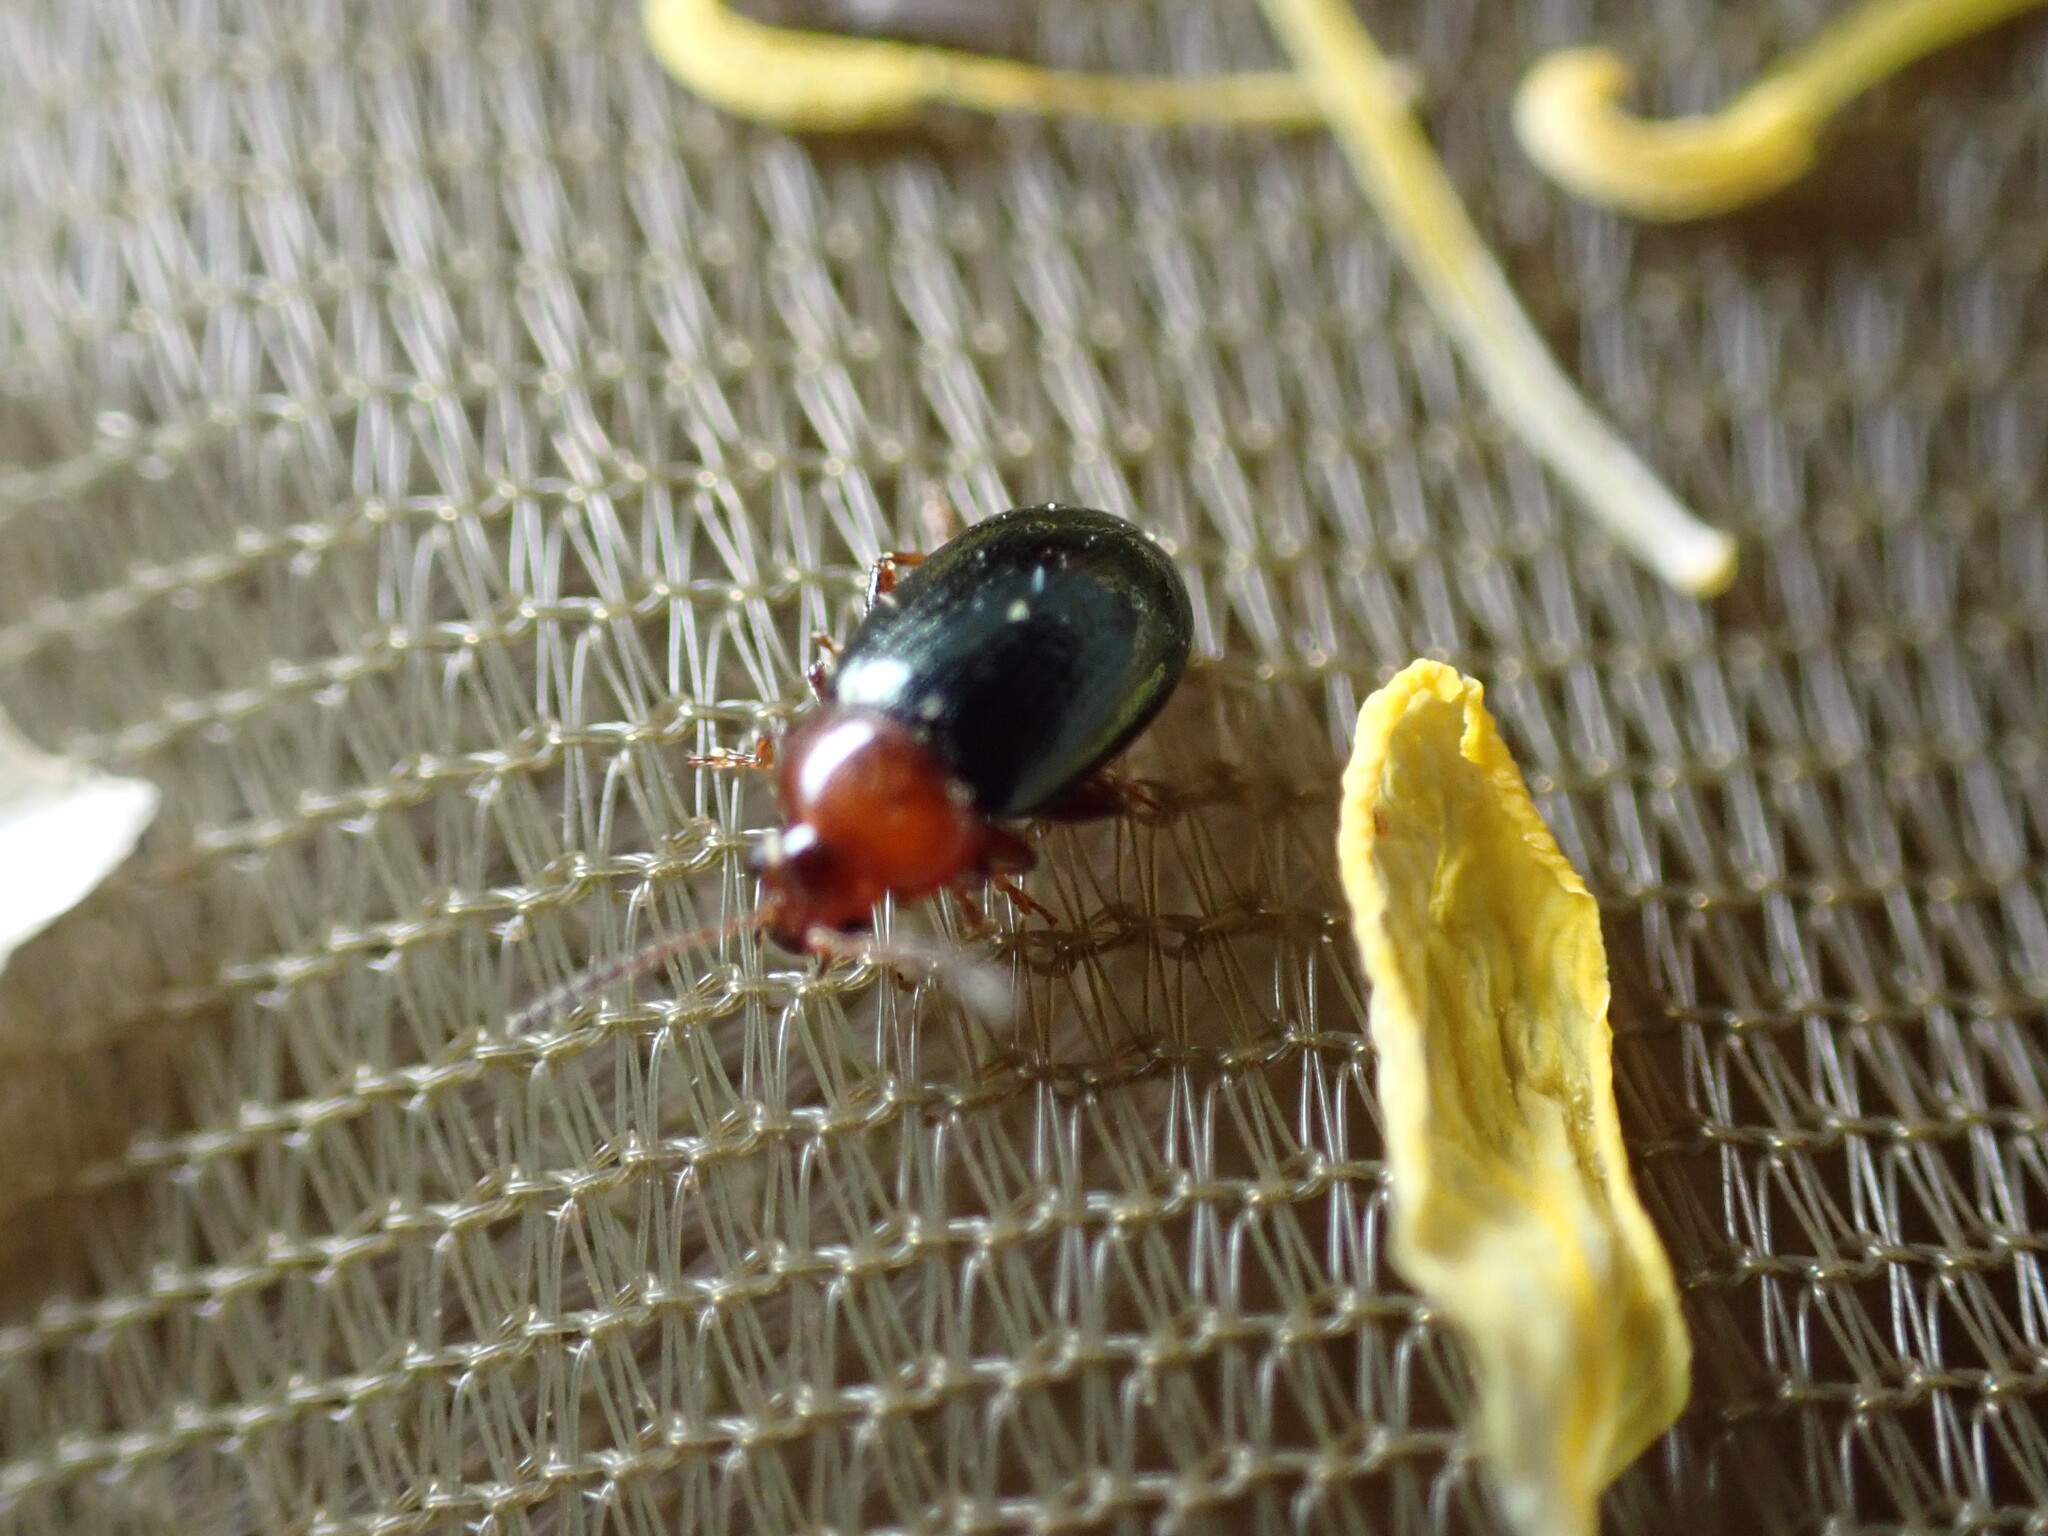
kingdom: Animalia
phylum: Arthropoda
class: Insecta
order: Coleoptera
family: Chrysomelidae
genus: Podagrica
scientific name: Podagrica malvae
